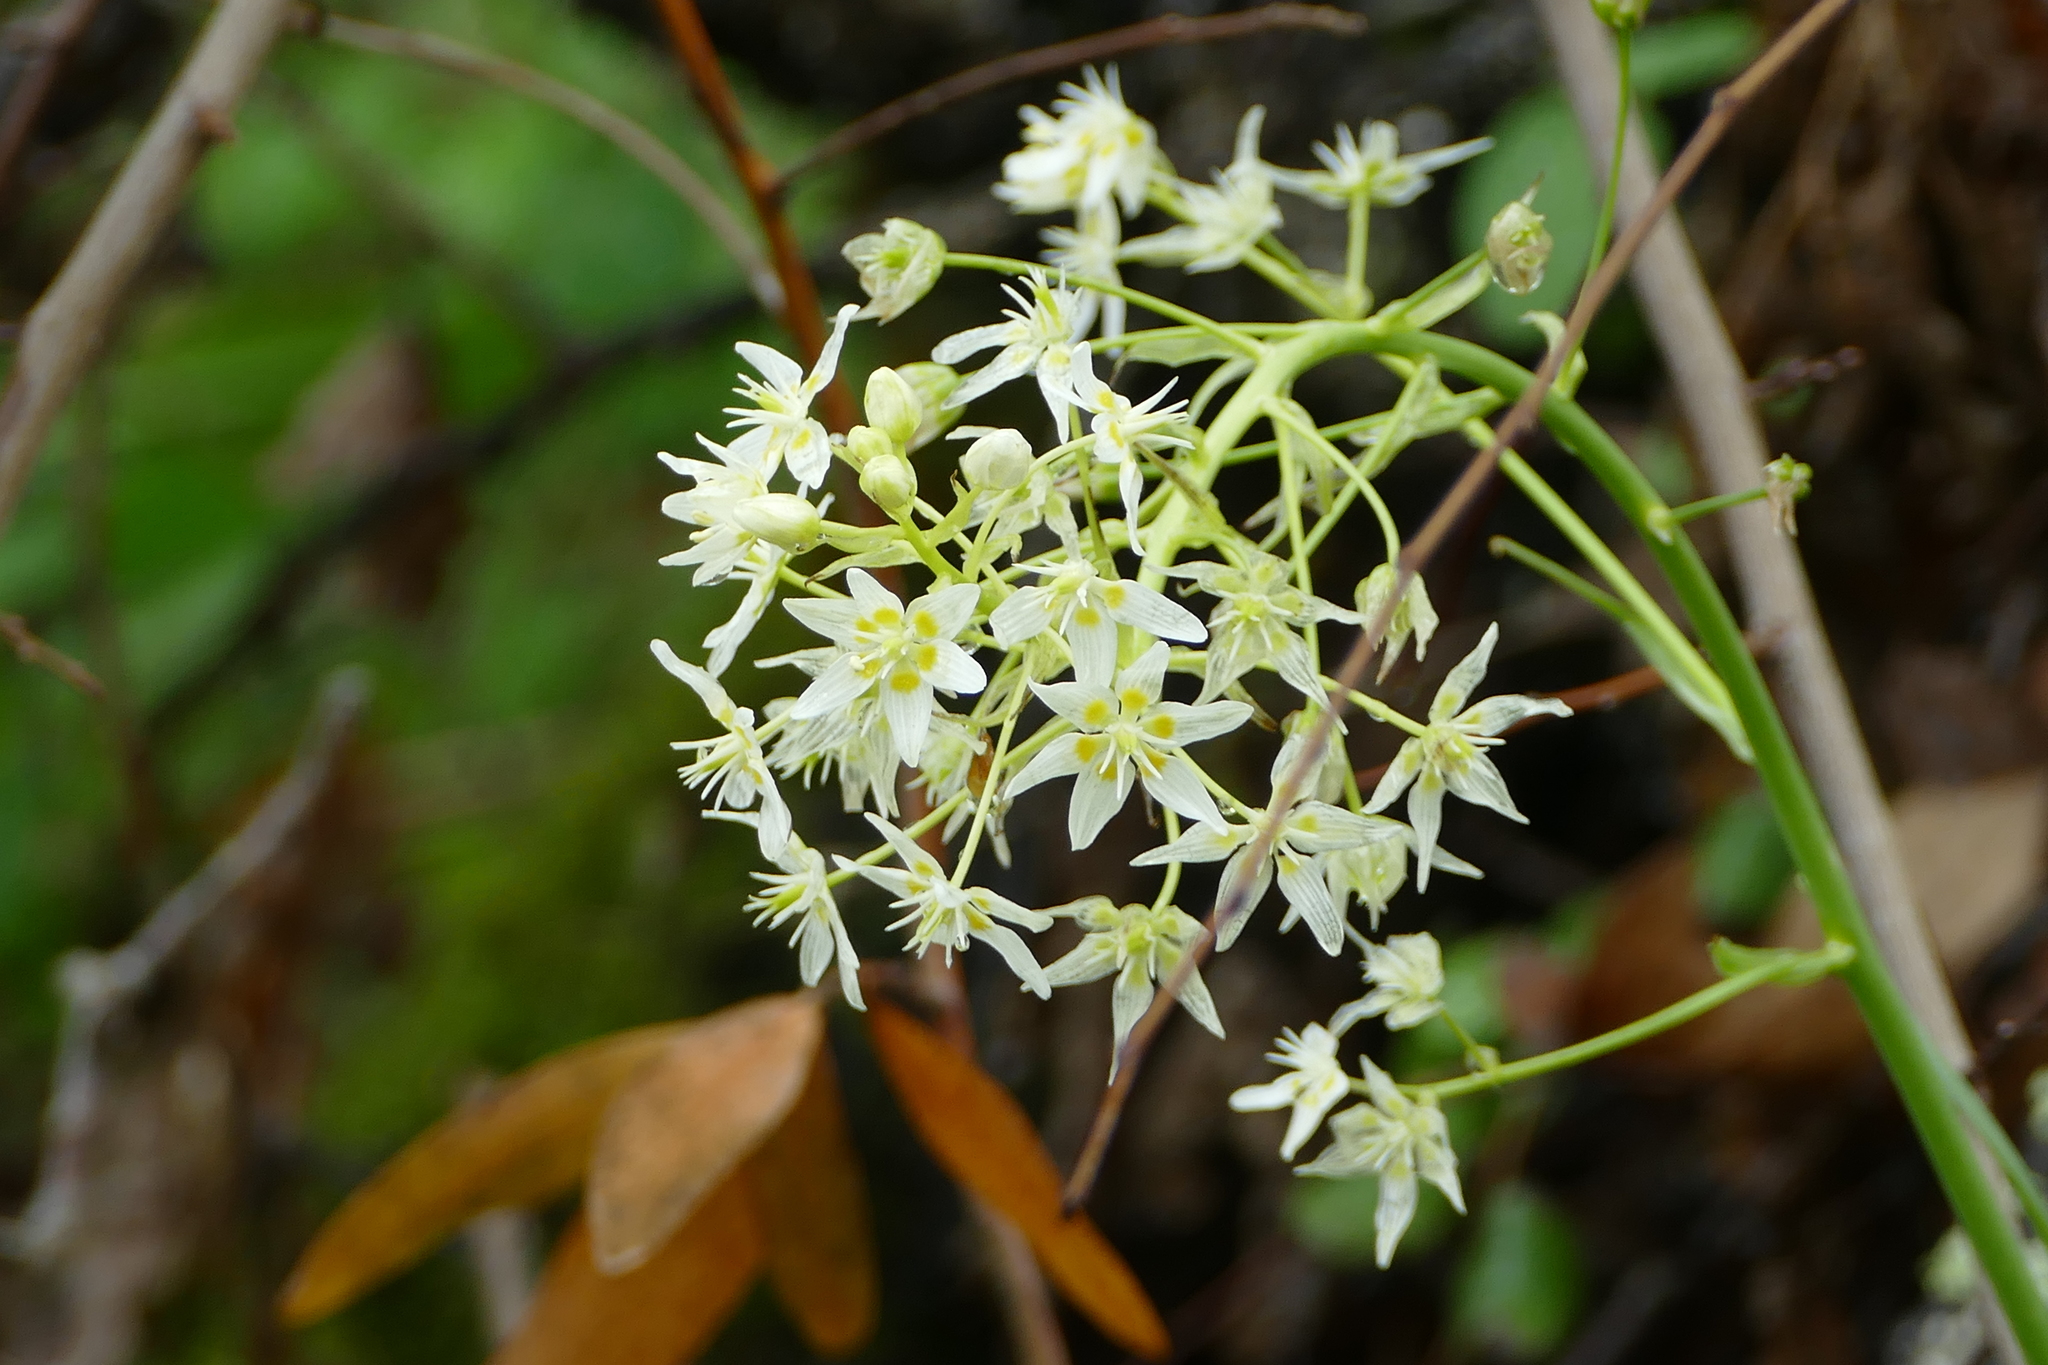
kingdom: Plantae
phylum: Tracheophyta
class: Liliopsida
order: Liliales
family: Melanthiaceae
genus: Toxicoscordion
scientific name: Toxicoscordion fremontii
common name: Fremont's death camas
